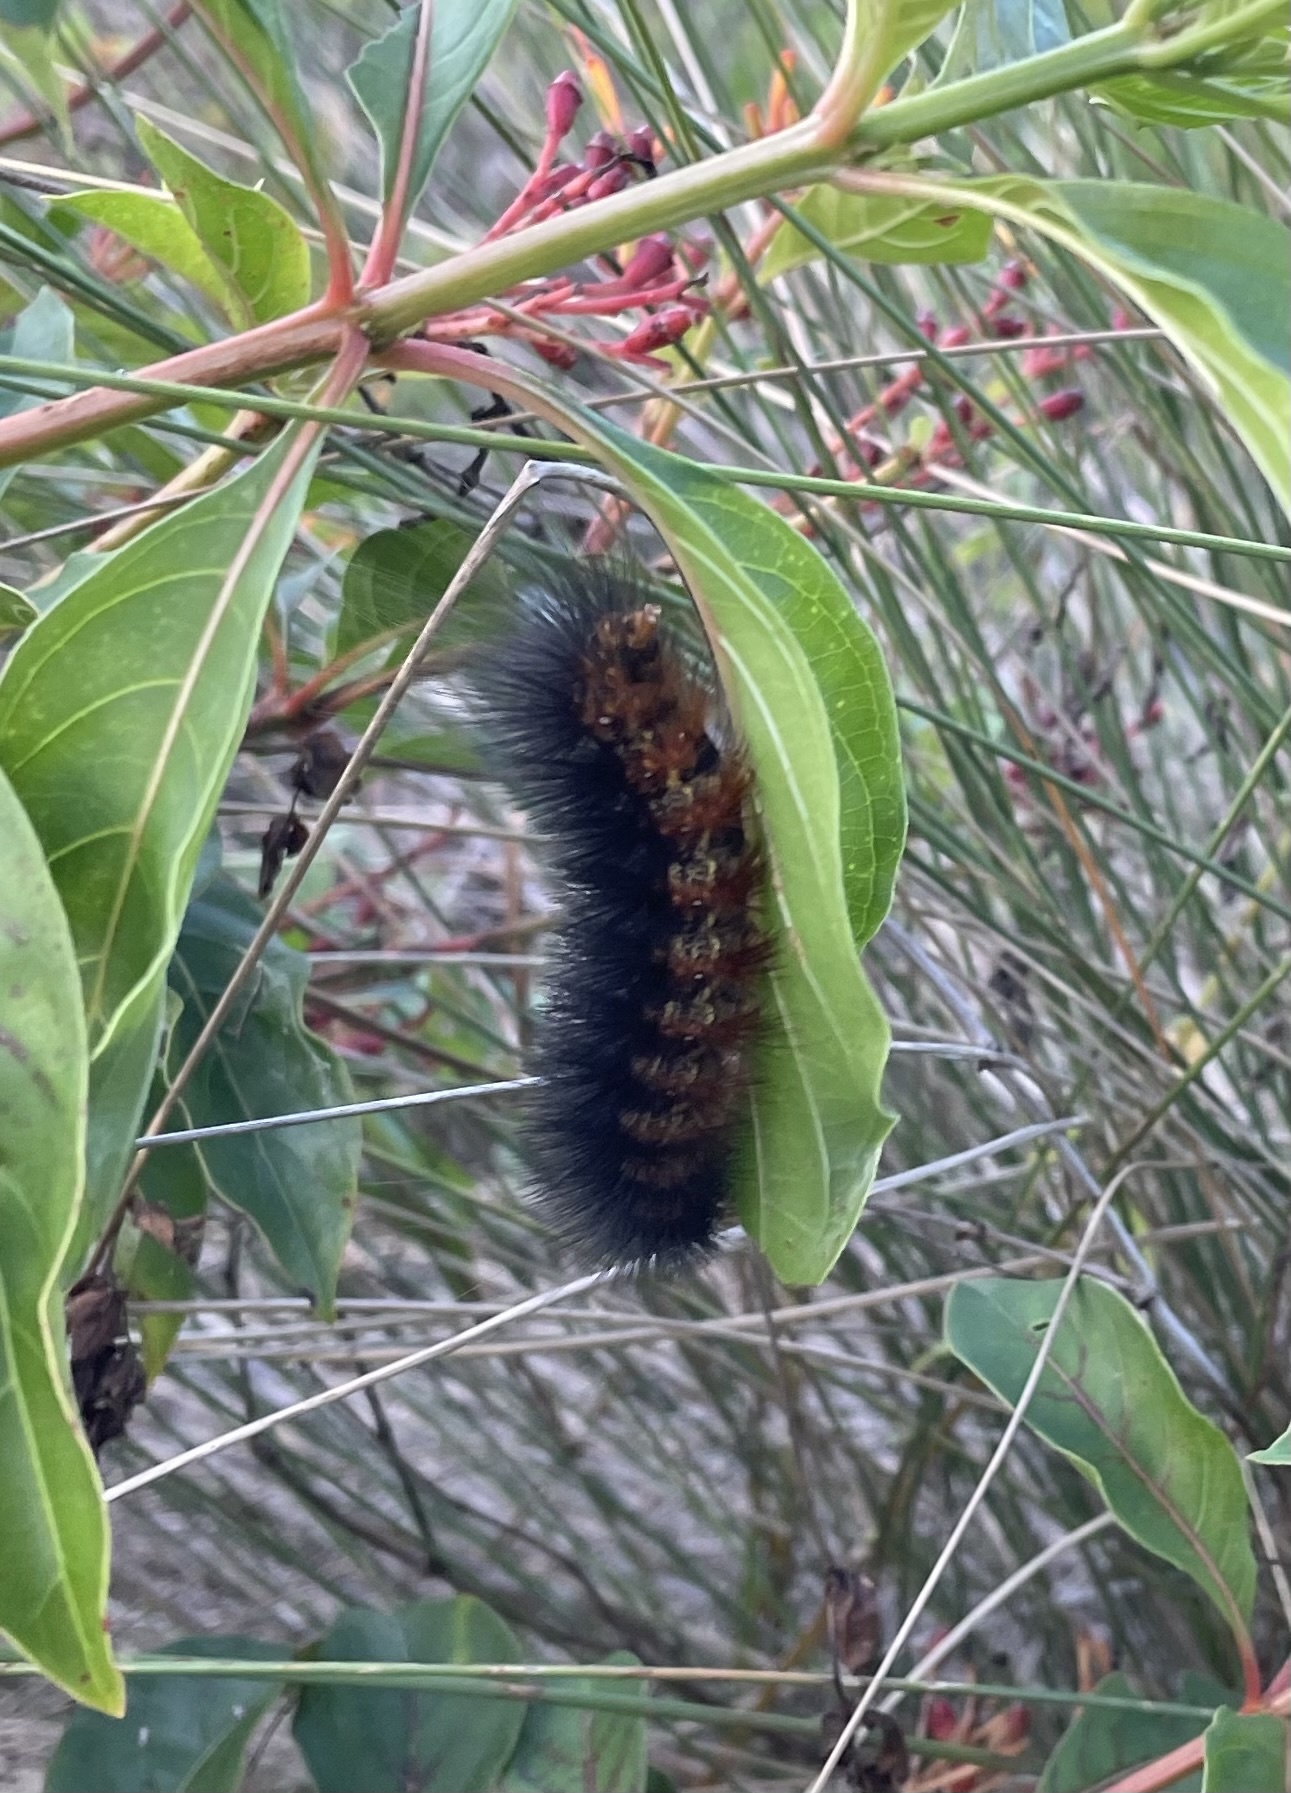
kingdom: Animalia
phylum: Arthropoda
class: Insecta
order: Lepidoptera
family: Erebidae
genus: Estigmene
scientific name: Estigmene acrea
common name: Salt marsh moth
